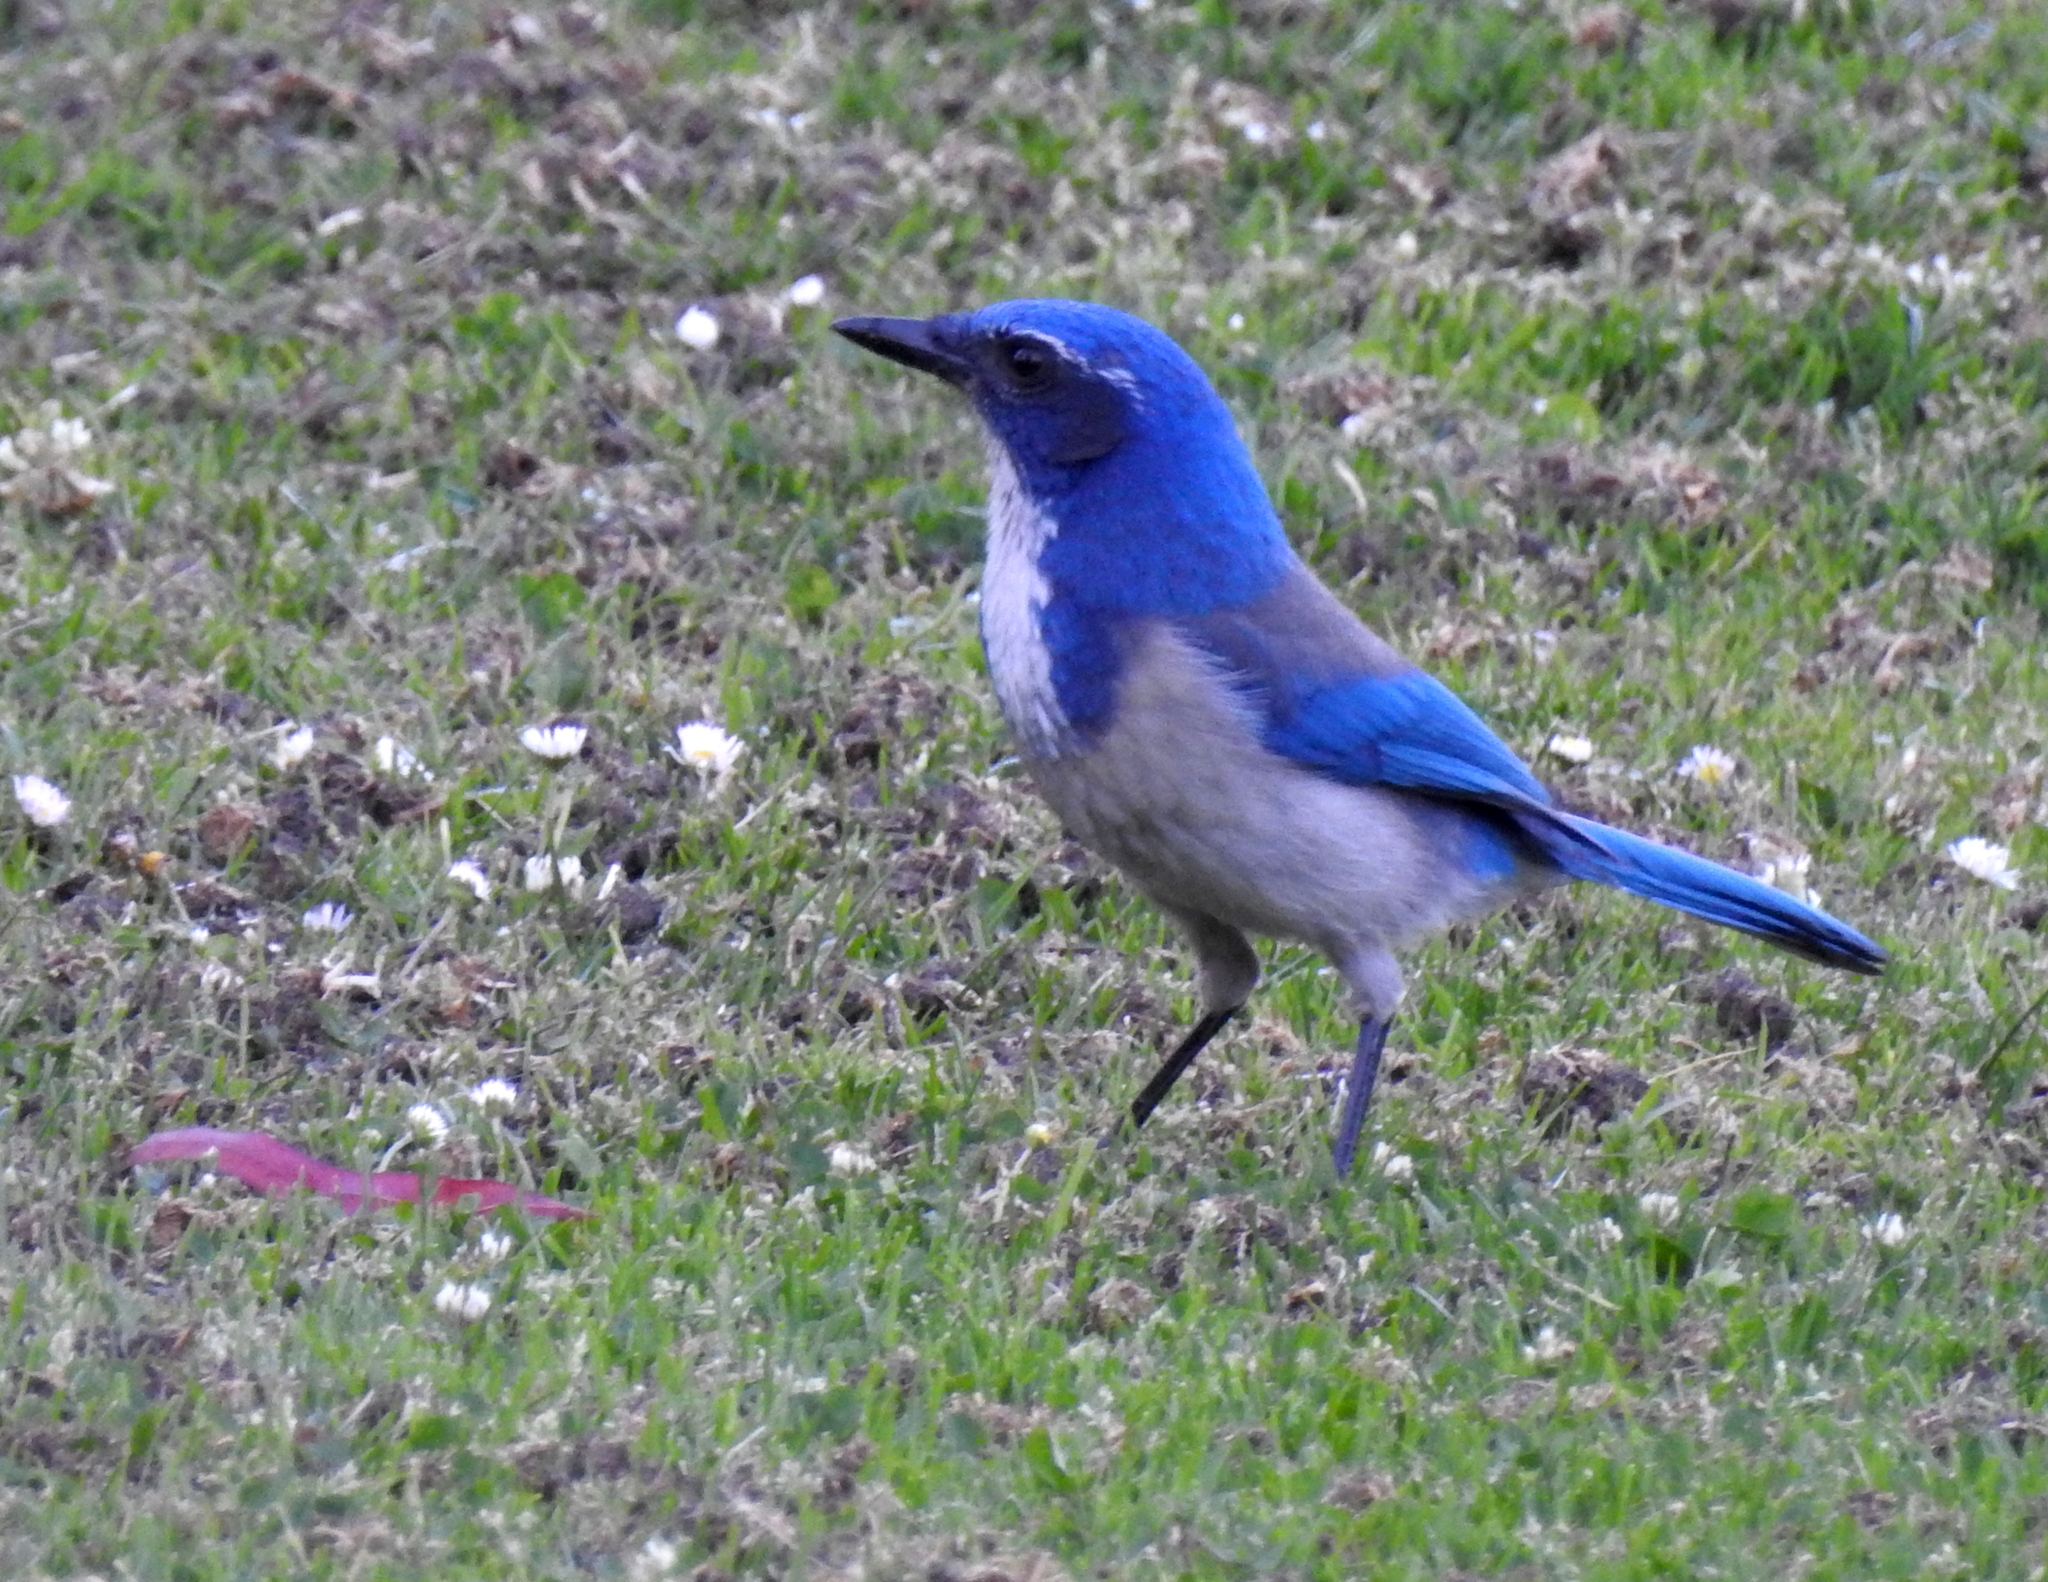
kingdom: Animalia
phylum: Chordata
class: Aves
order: Passeriformes
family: Corvidae
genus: Aphelocoma
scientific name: Aphelocoma californica
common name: California scrub-jay
